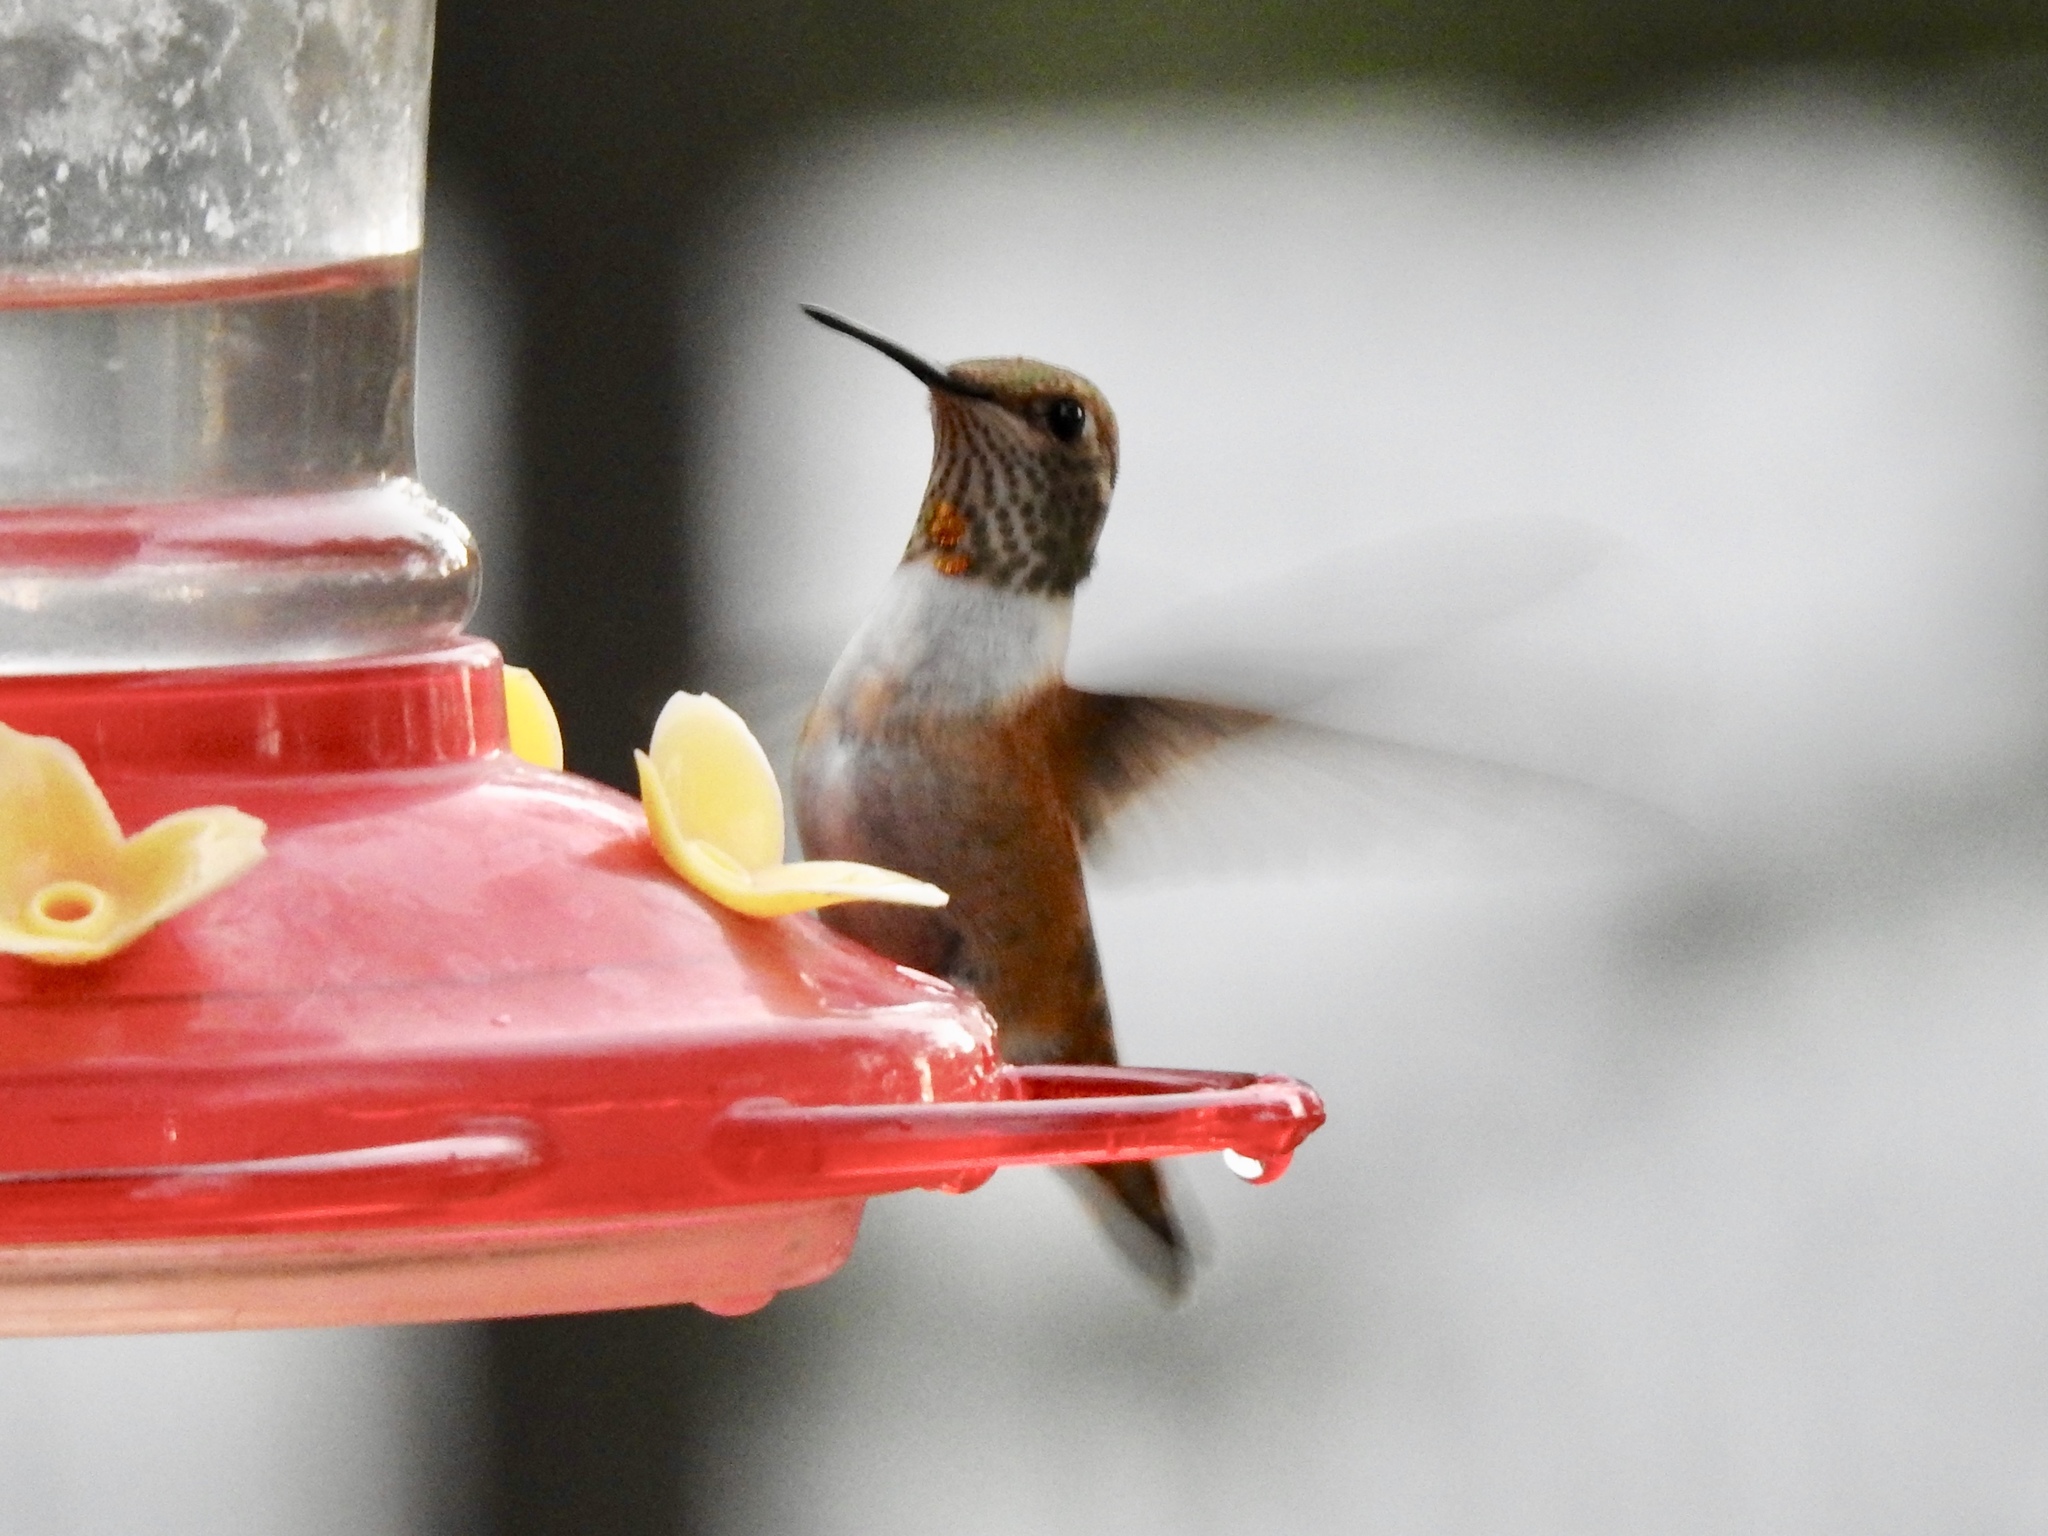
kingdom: Animalia
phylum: Chordata
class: Aves
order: Apodiformes
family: Trochilidae
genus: Selasphorus
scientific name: Selasphorus rufus
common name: Rufous hummingbird
